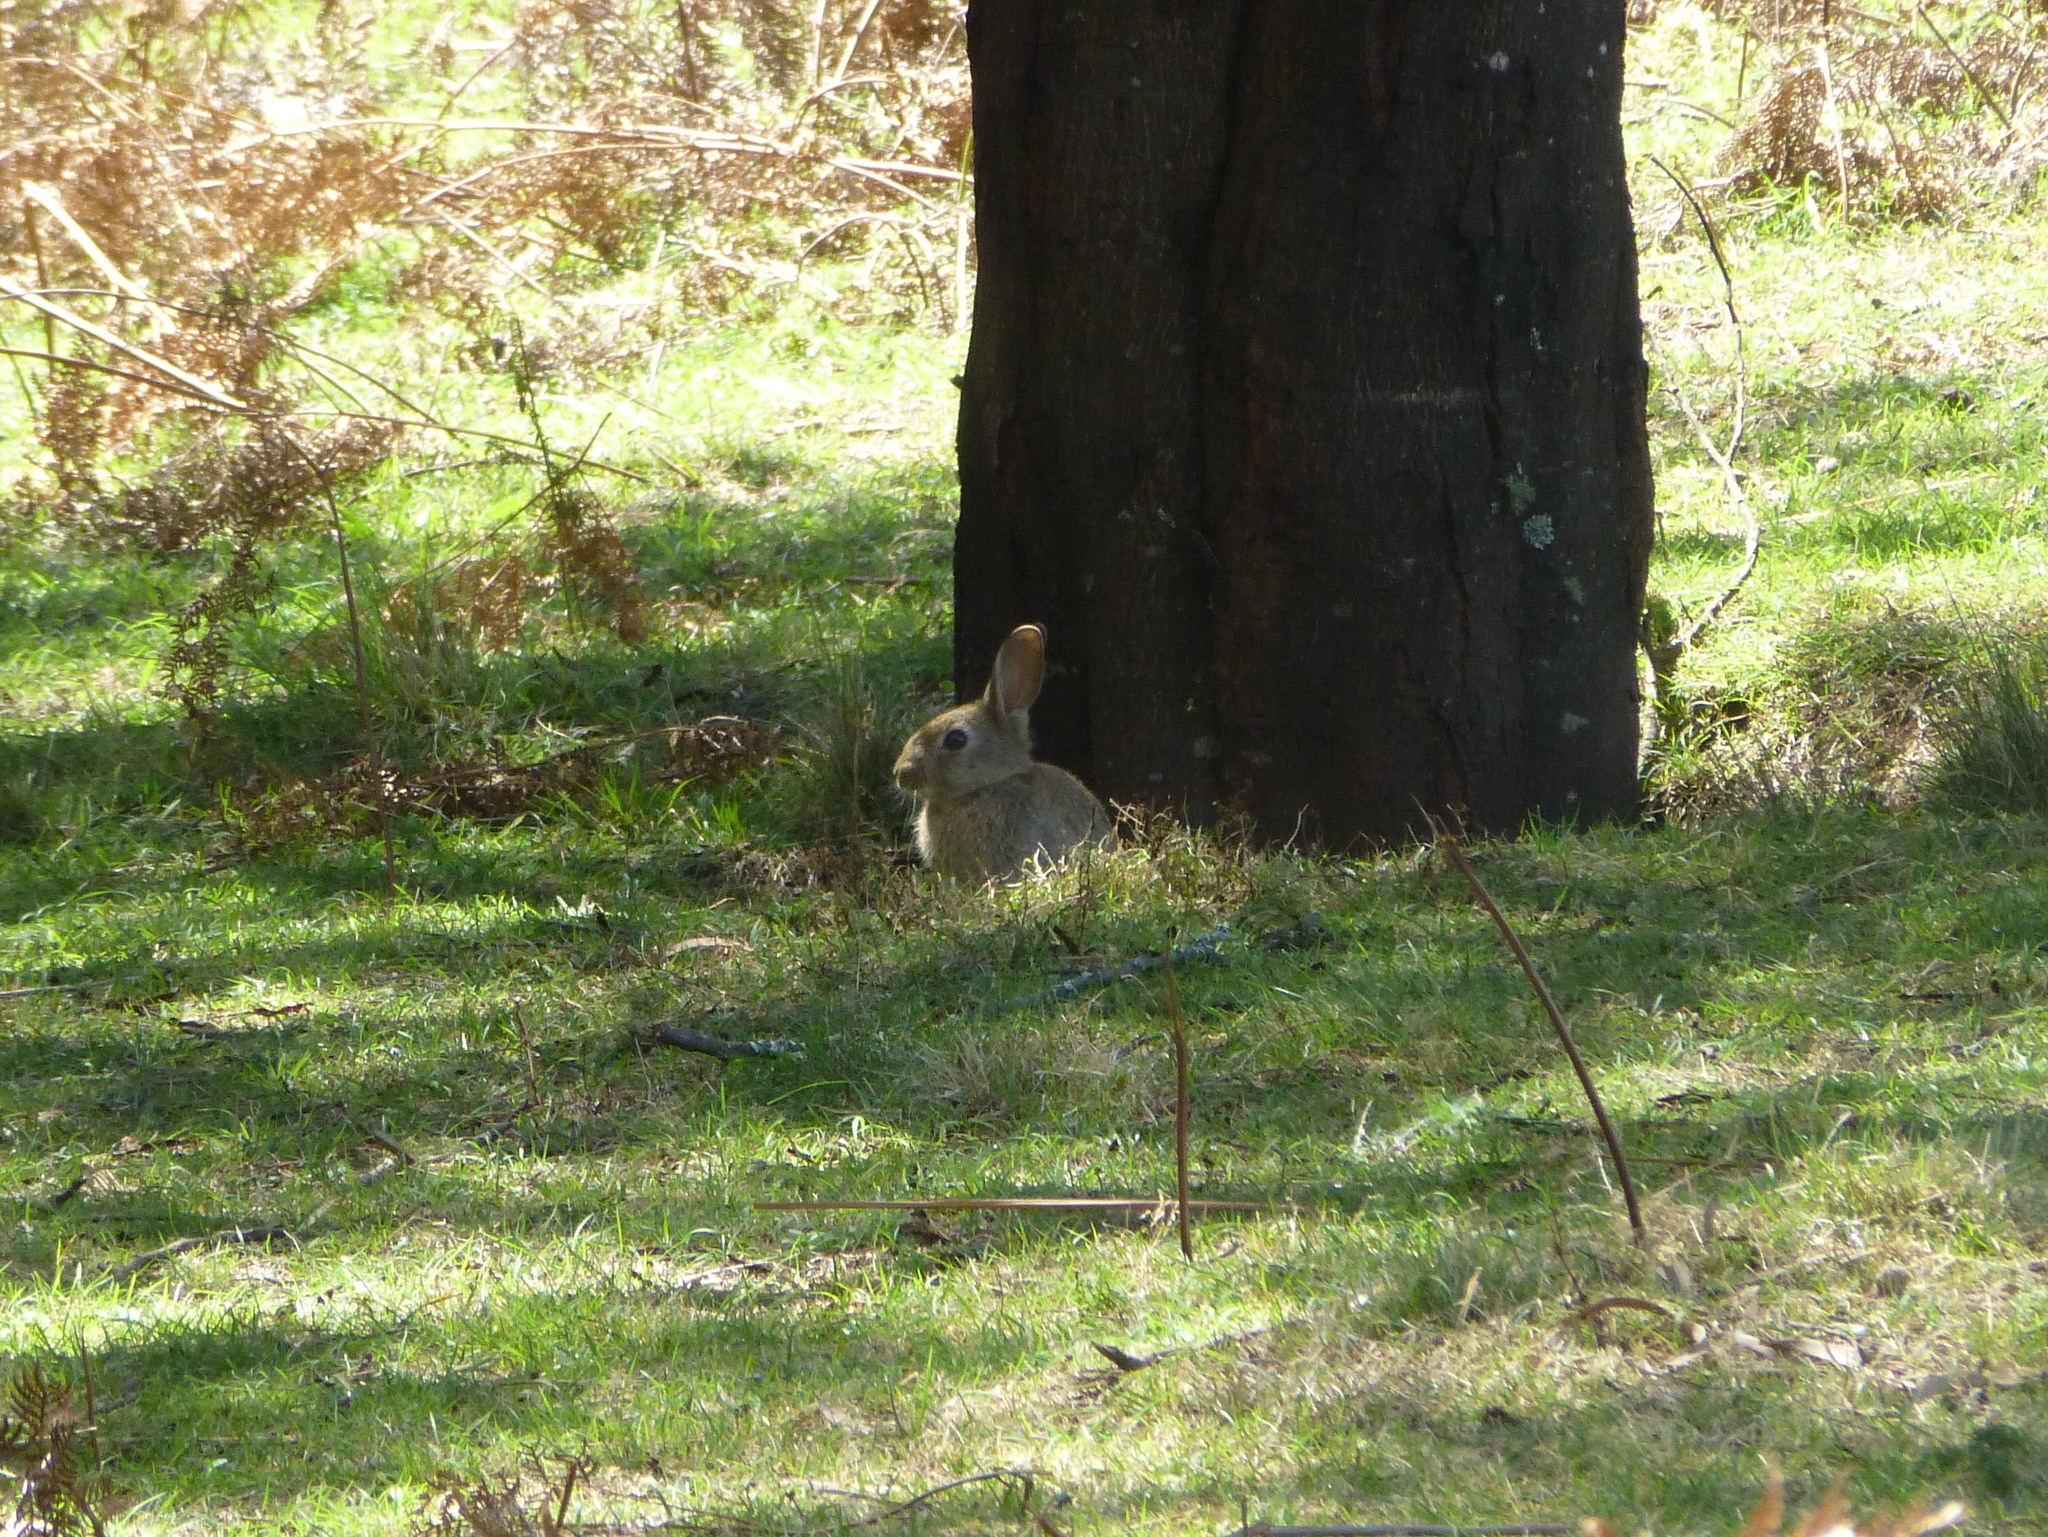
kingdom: Animalia
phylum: Chordata
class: Mammalia
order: Lagomorpha
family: Leporidae
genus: Oryctolagus
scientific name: Oryctolagus cuniculus
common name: European rabbit
